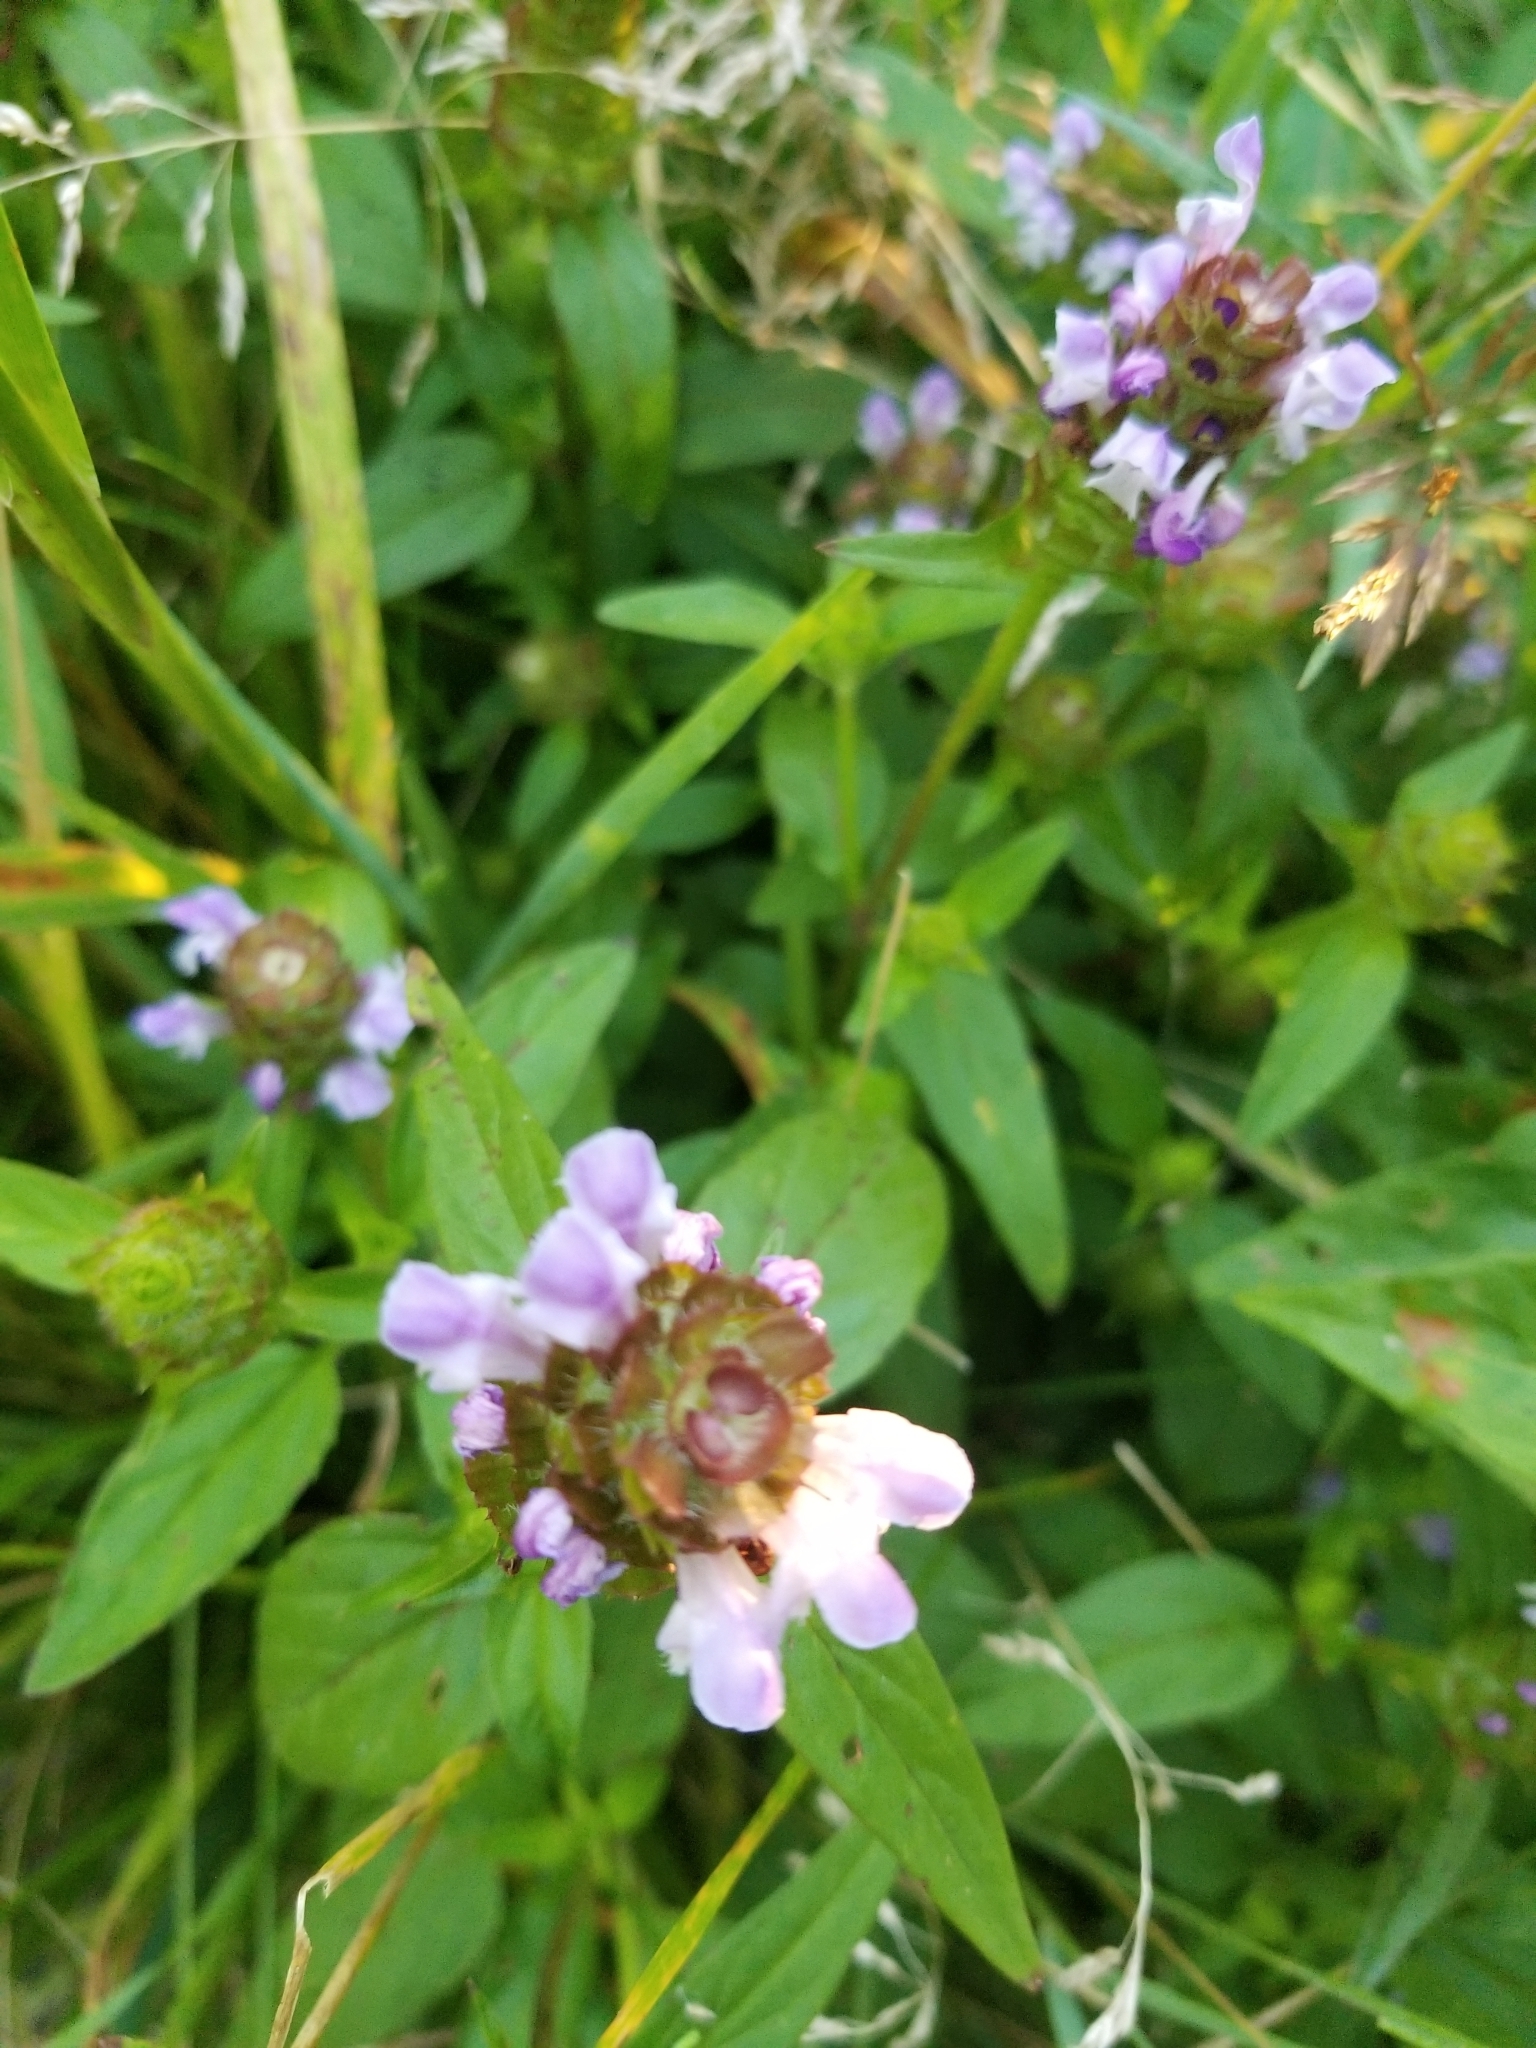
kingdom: Plantae
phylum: Tracheophyta
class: Magnoliopsida
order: Lamiales
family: Lamiaceae
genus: Prunella
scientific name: Prunella vulgaris
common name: Heal-all
